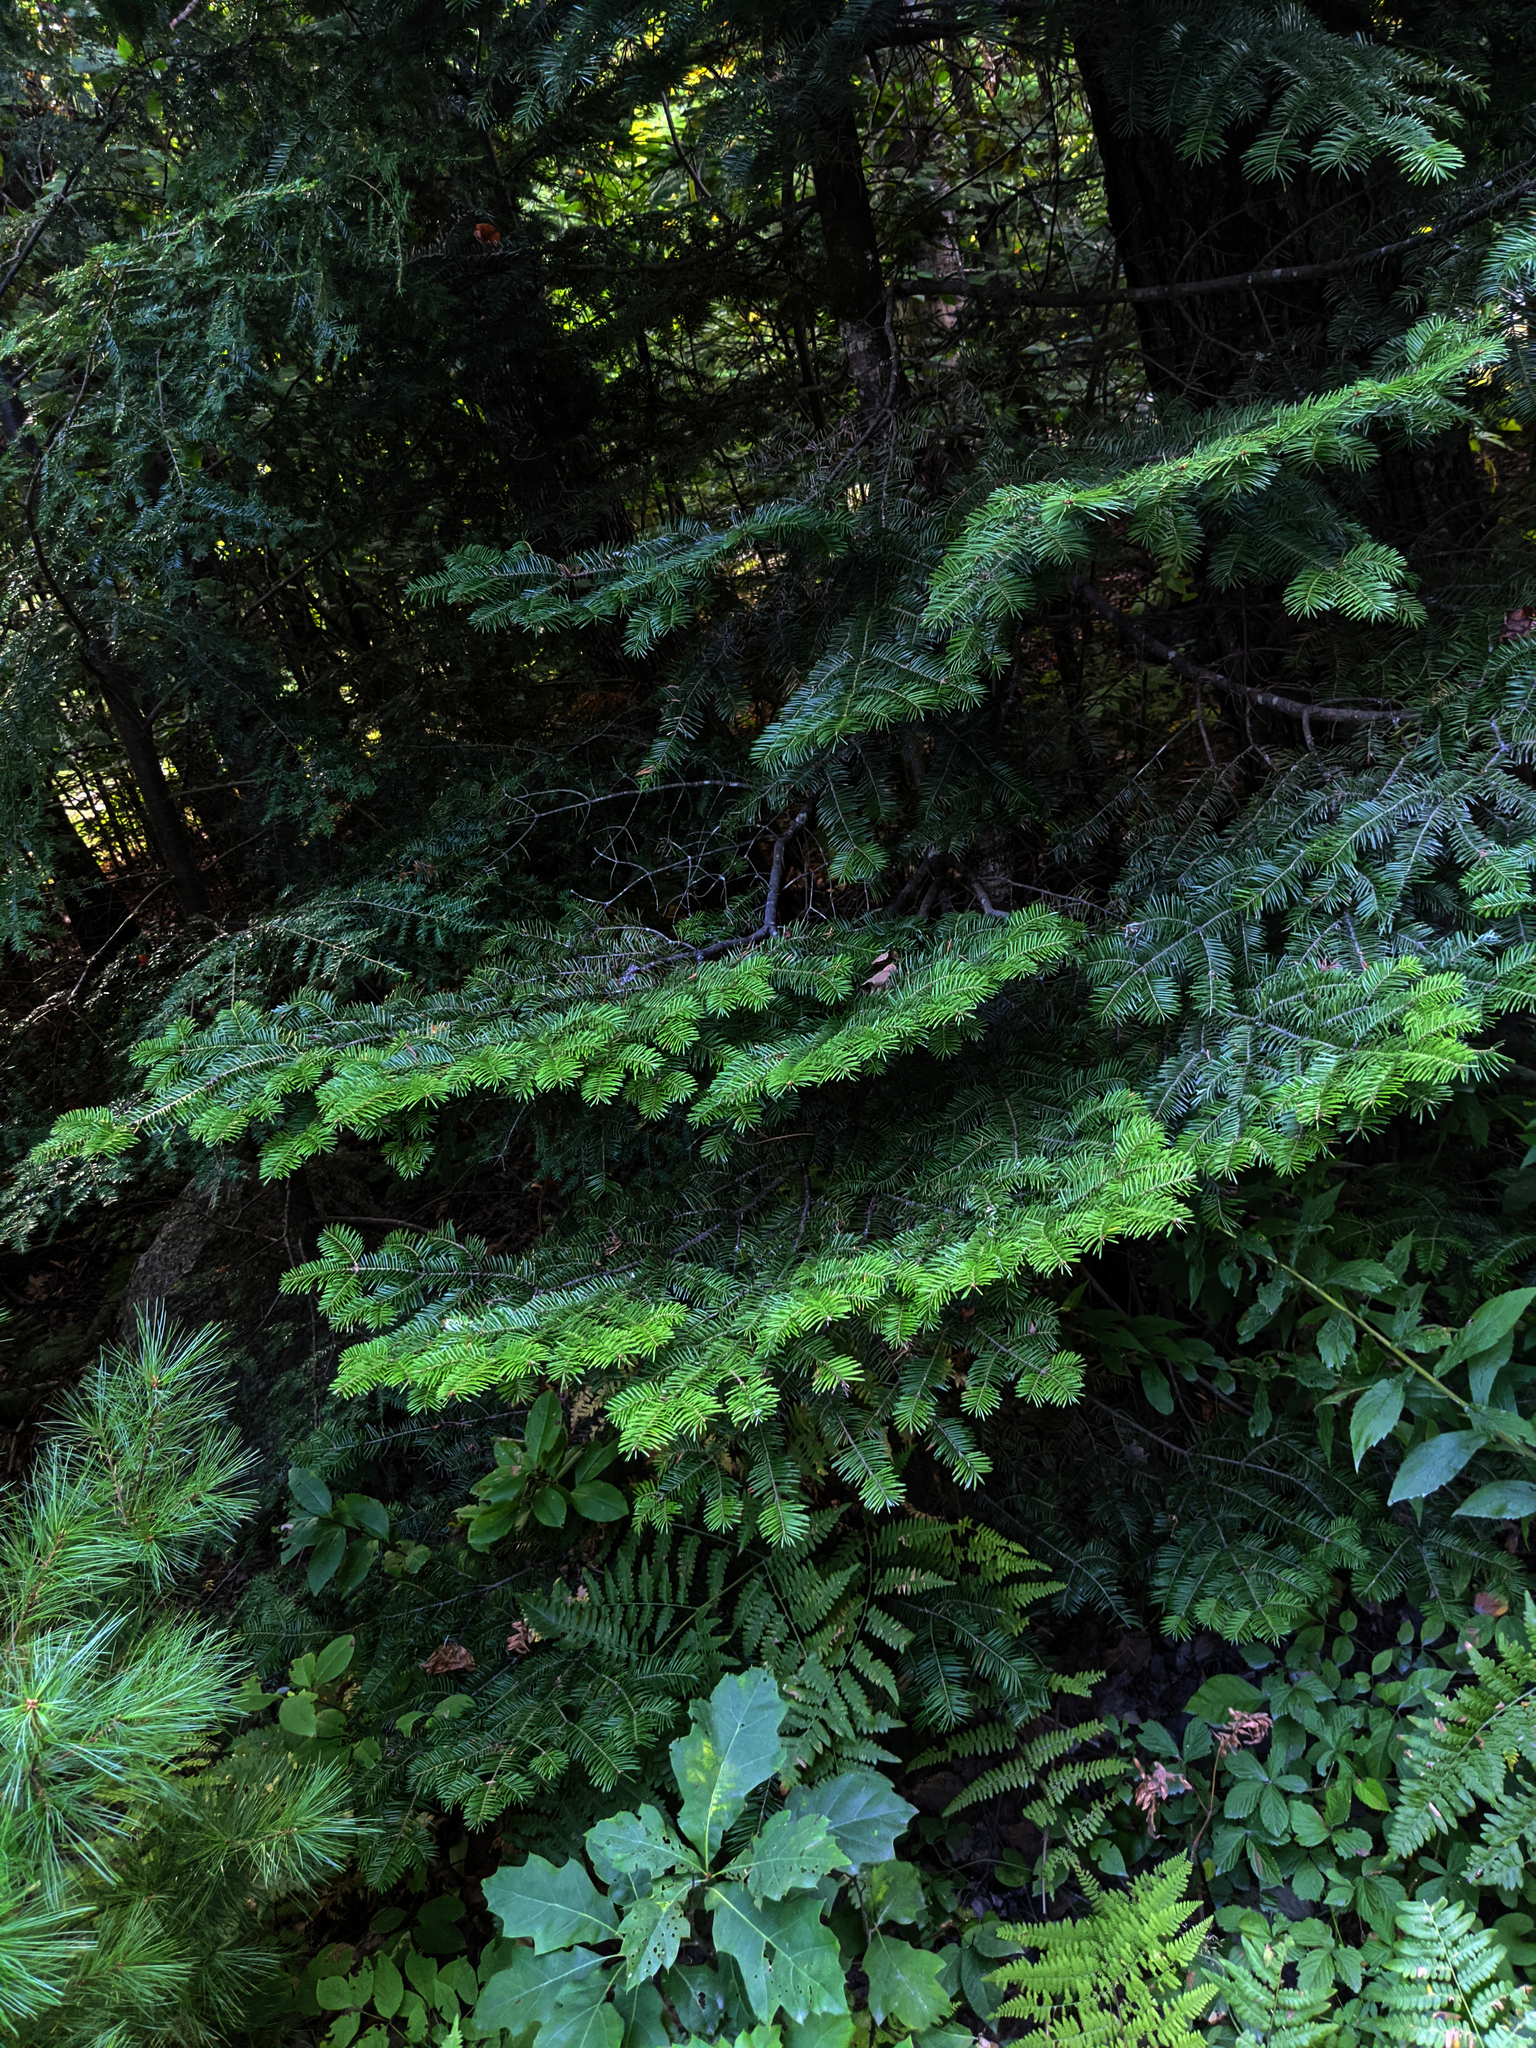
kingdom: Plantae
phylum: Tracheophyta
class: Pinopsida
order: Pinales
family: Pinaceae
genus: Abies
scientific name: Abies balsamea
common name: Balsam fir
